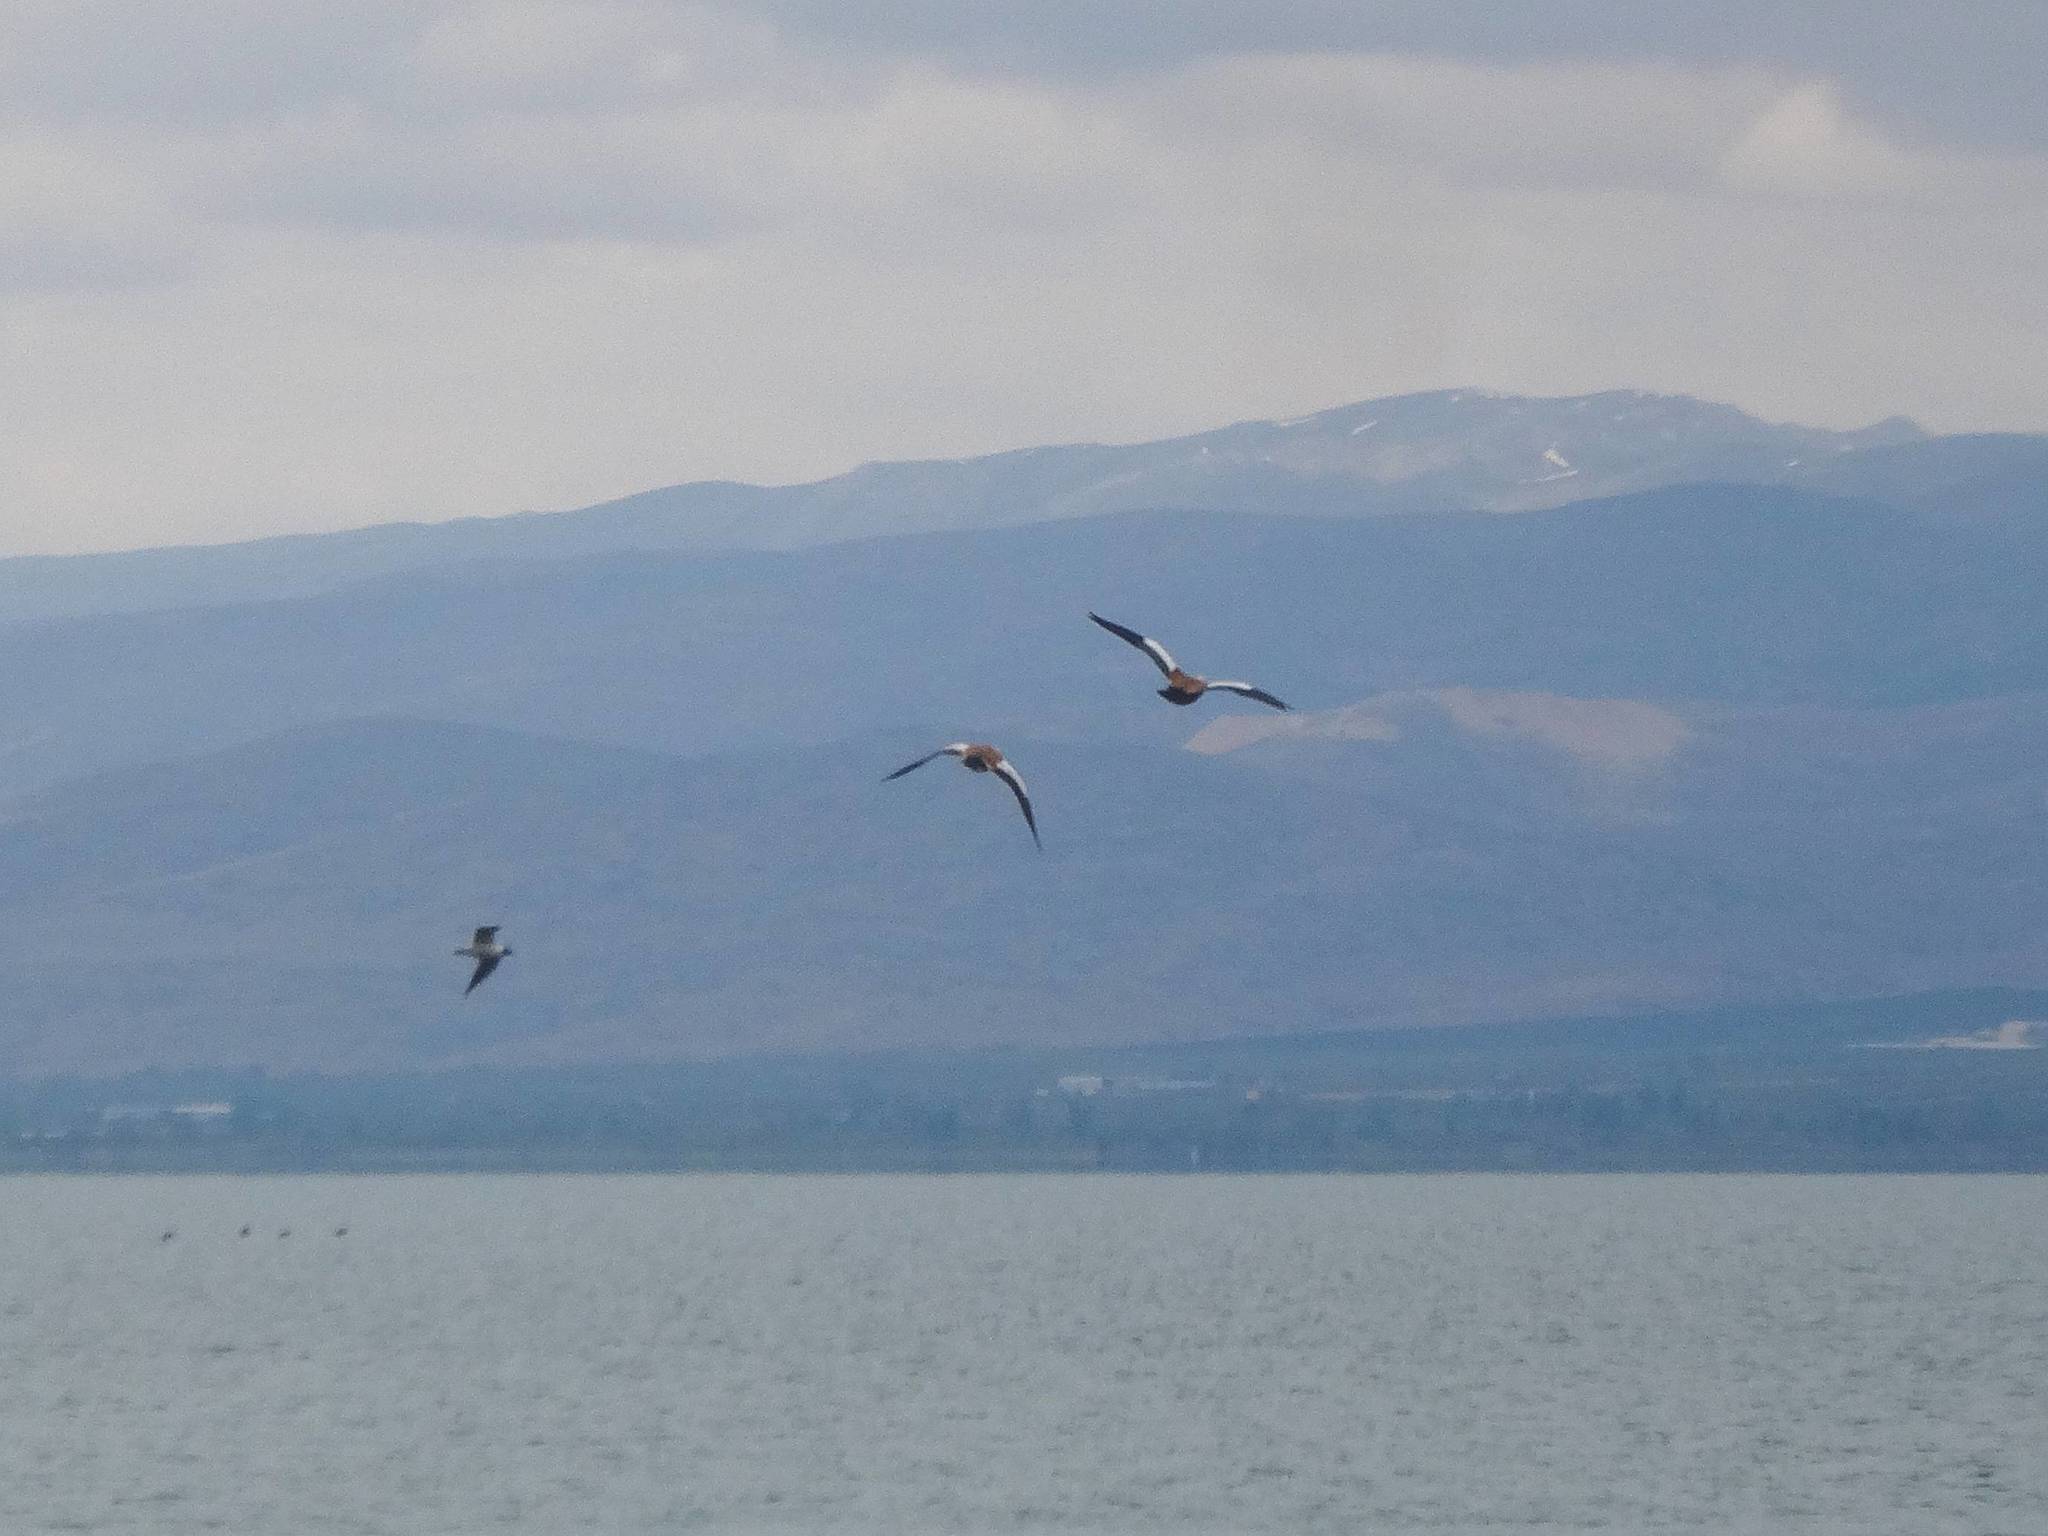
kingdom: Animalia
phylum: Chordata
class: Aves
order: Anseriformes
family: Anatidae
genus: Tadorna
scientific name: Tadorna ferruginea
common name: Ruddy shelduck
